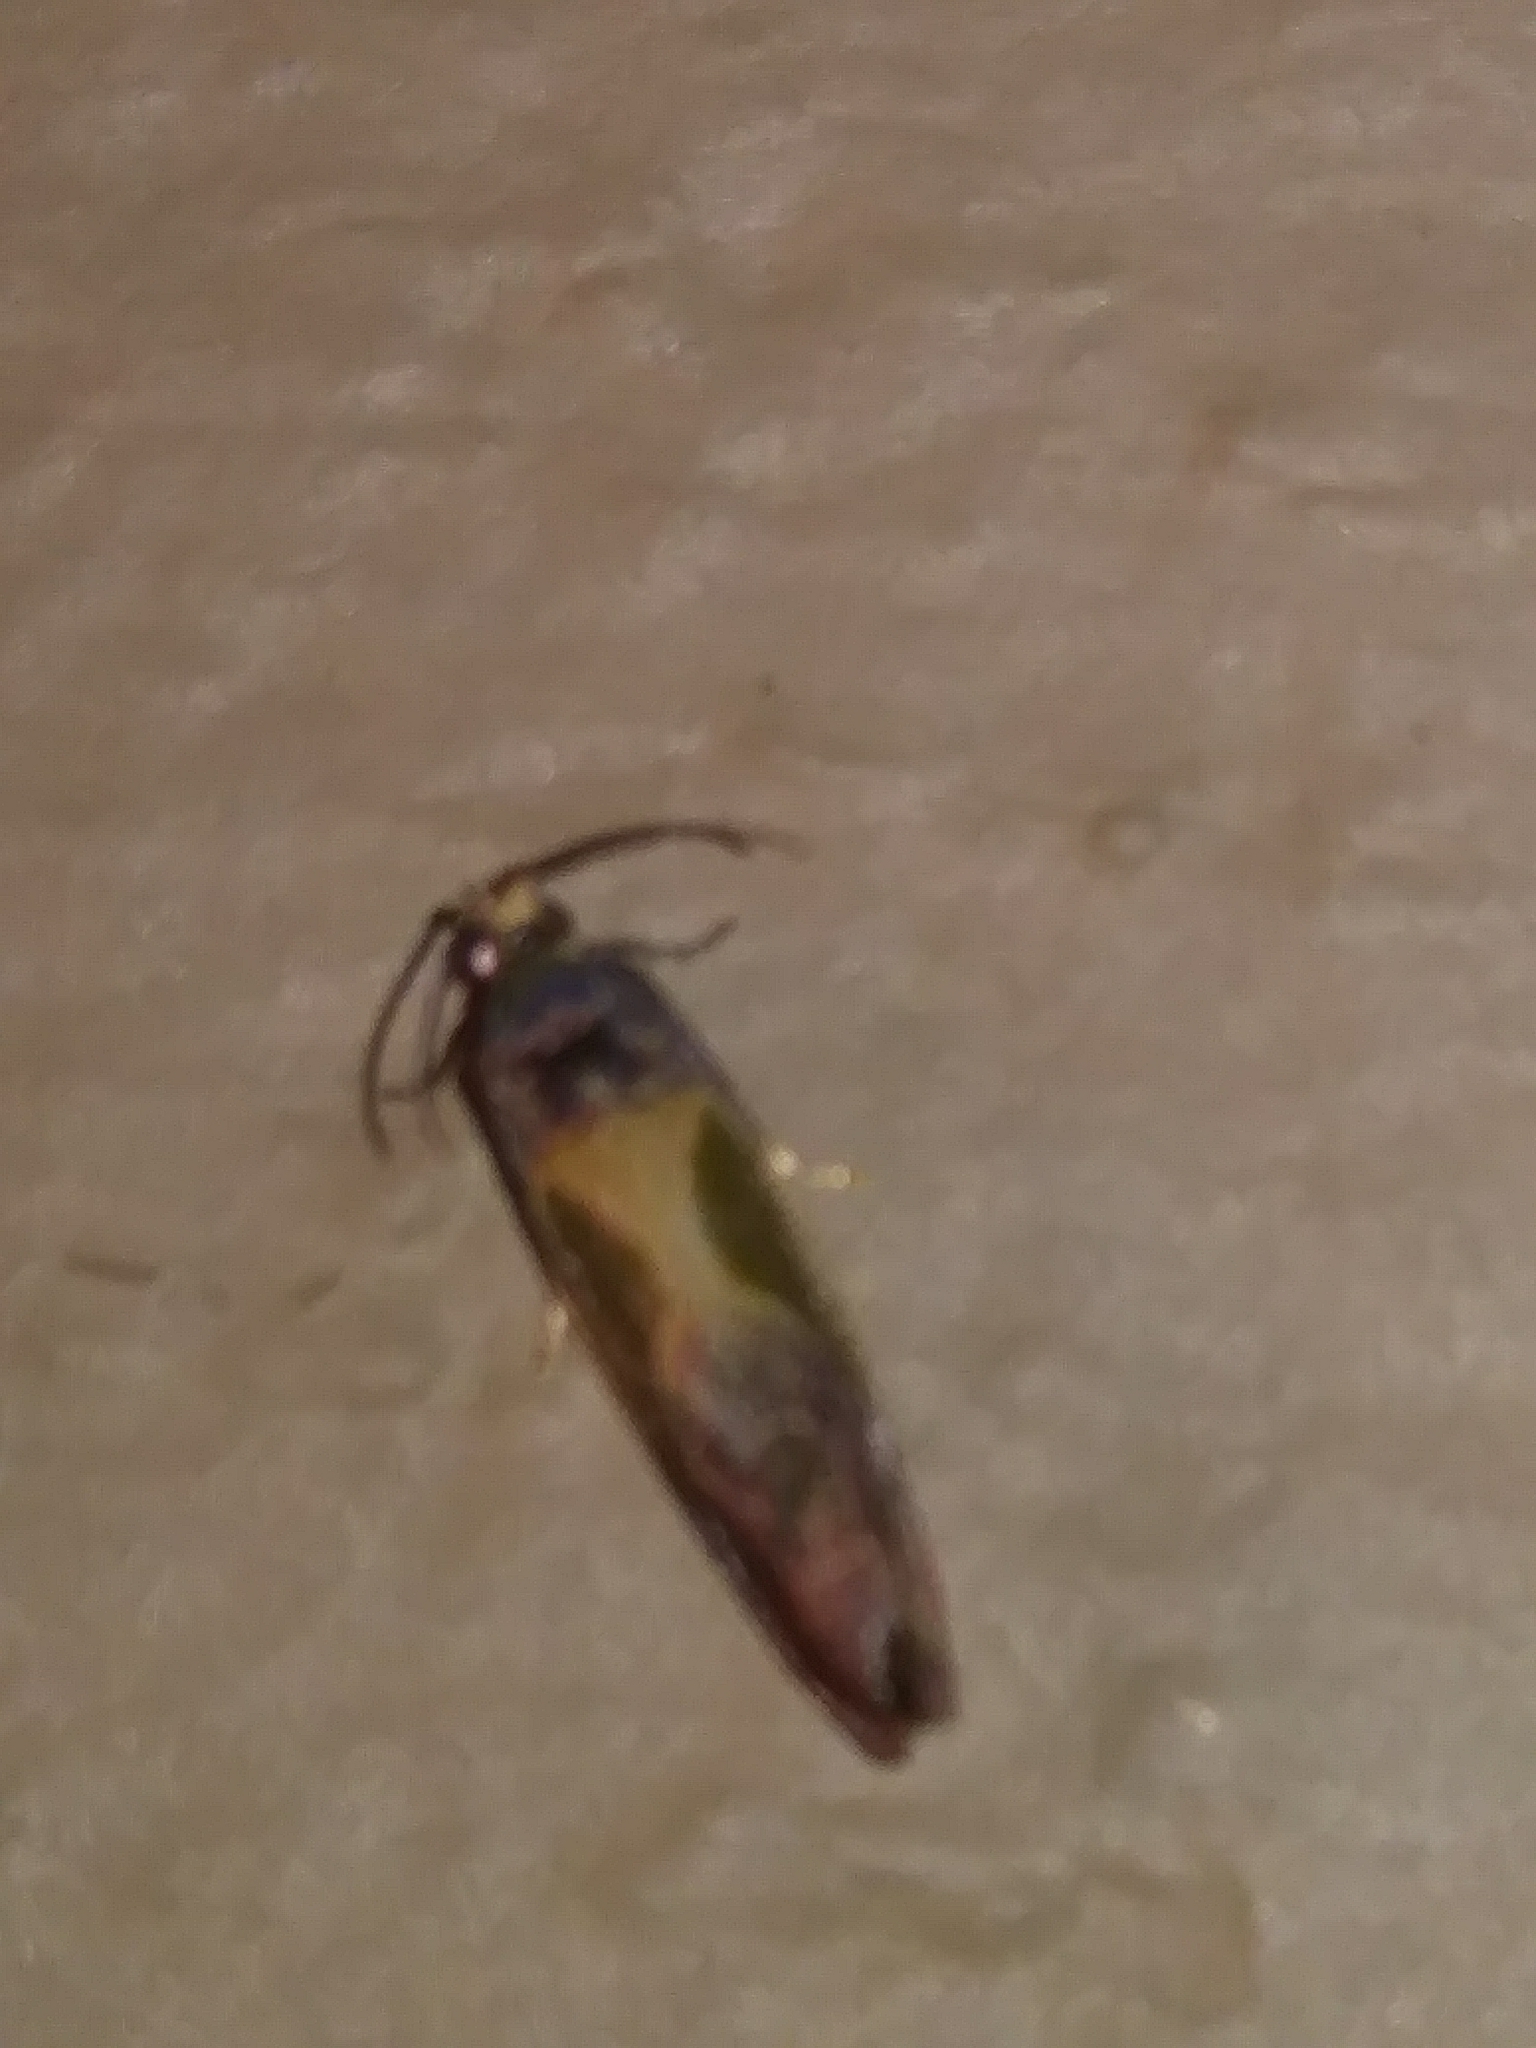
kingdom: Animalia
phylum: Arthropoda
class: Insecta
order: Lepidoptera
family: Tortricidae
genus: Eumarozia
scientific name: Eumarozia malachitana
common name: Sculptured moth
